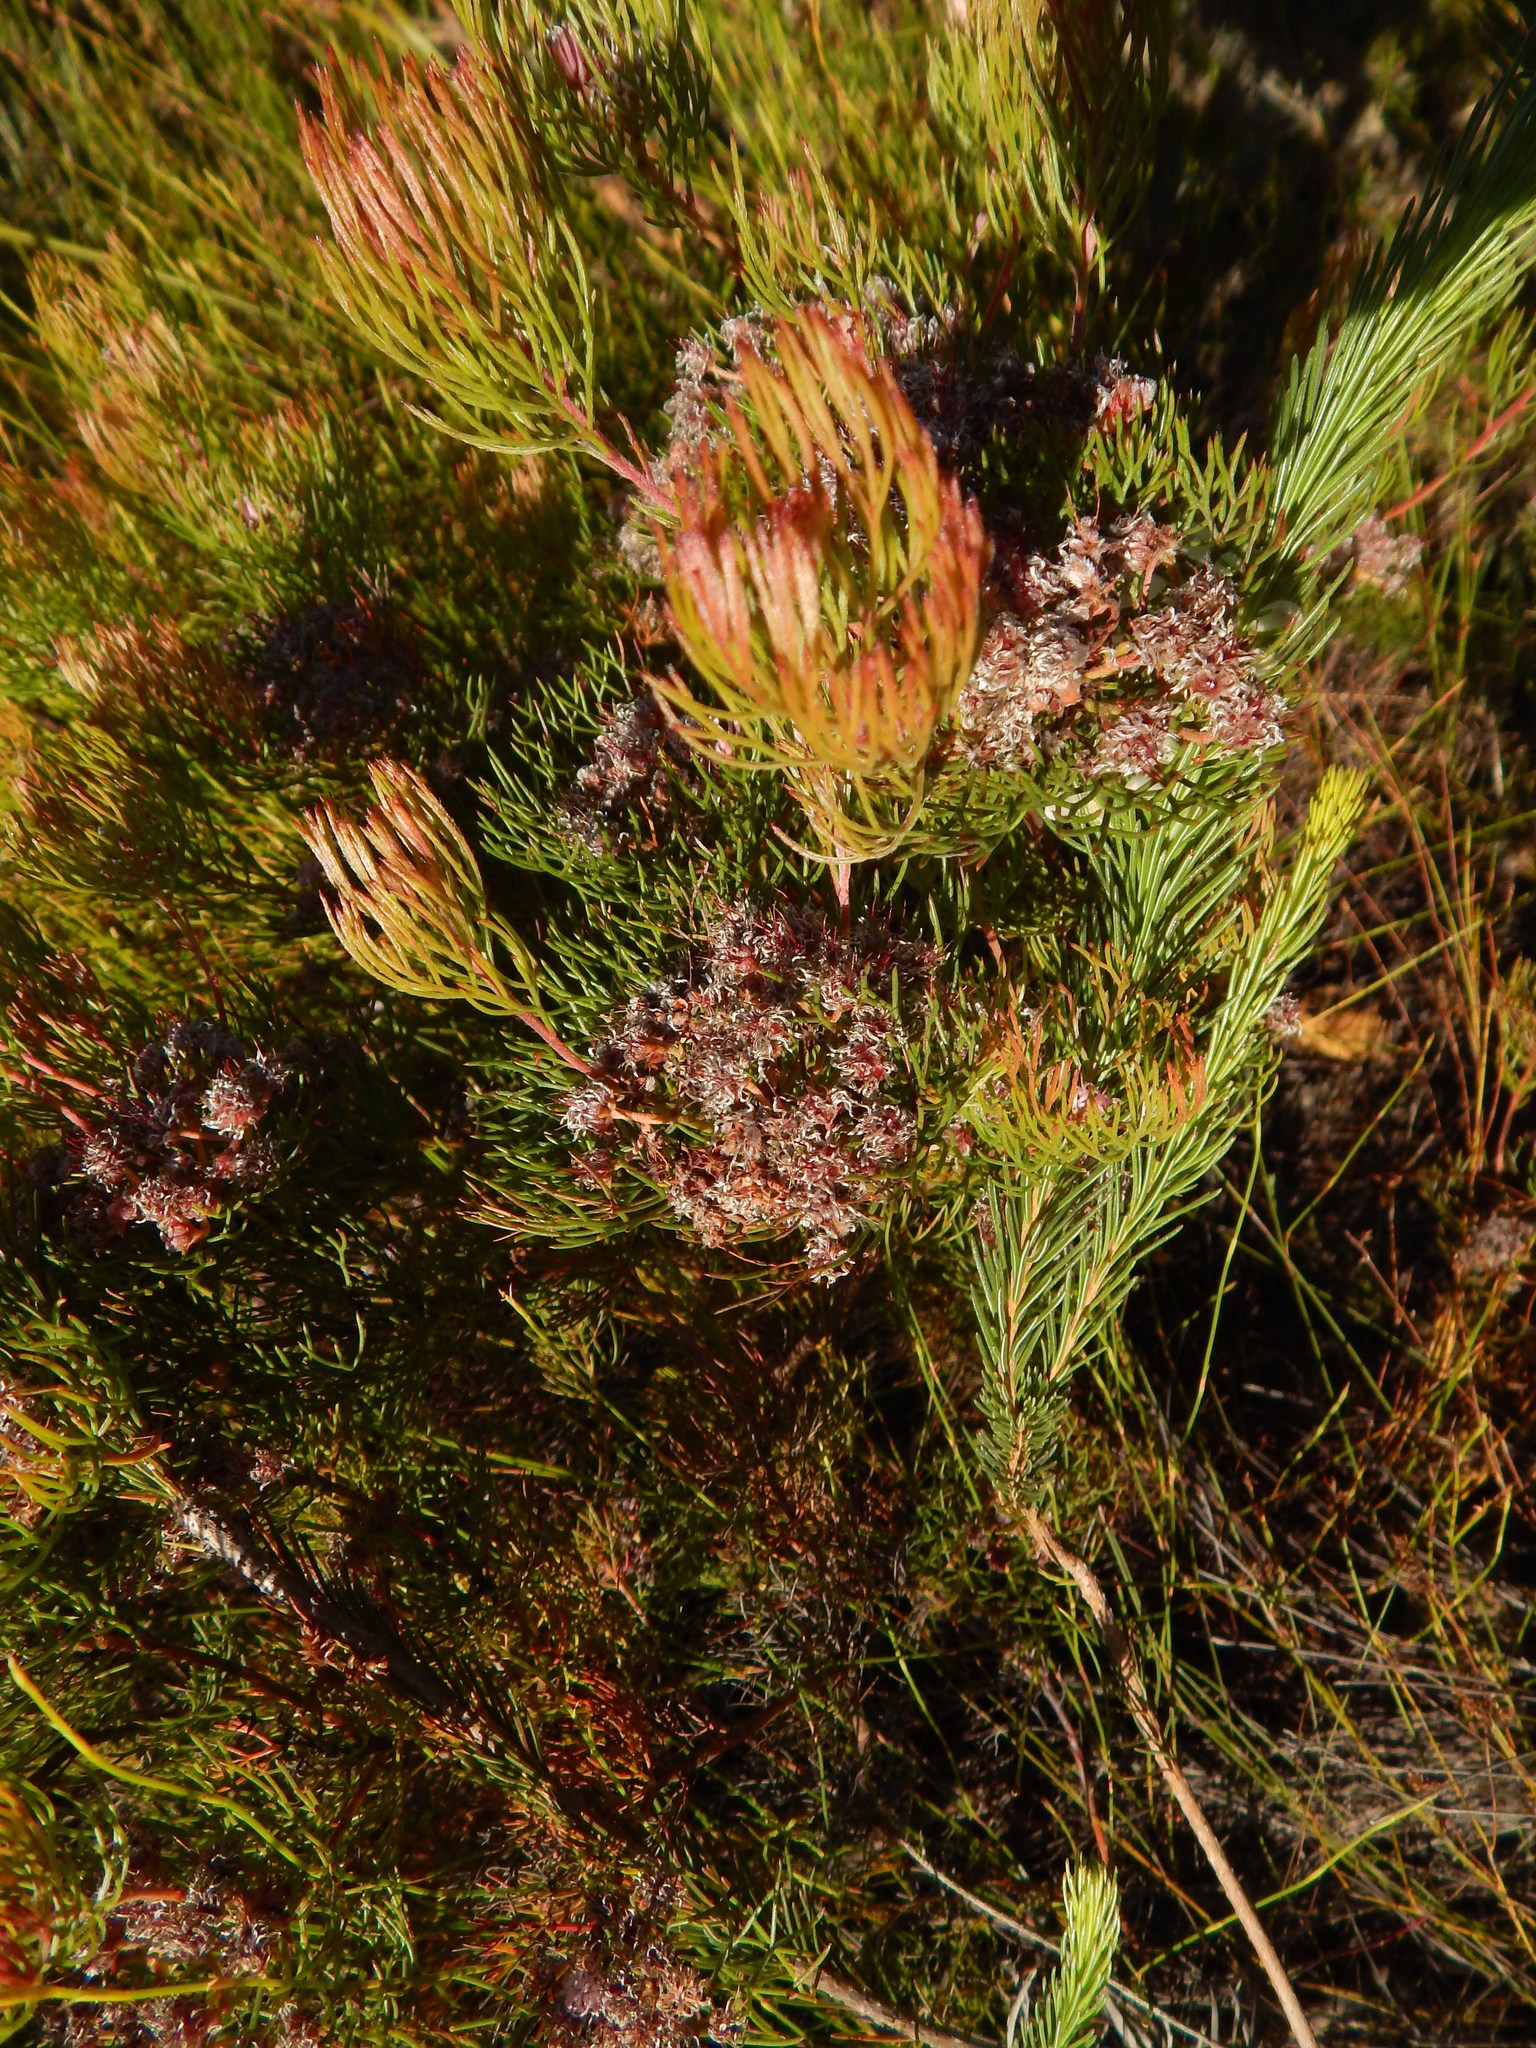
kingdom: Plantae
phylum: Tracheophyta
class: Magnoliopsida
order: Proteales
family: Proteaceae
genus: Serruria
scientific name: Serruria fasciflora
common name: Common pin spiderhead
